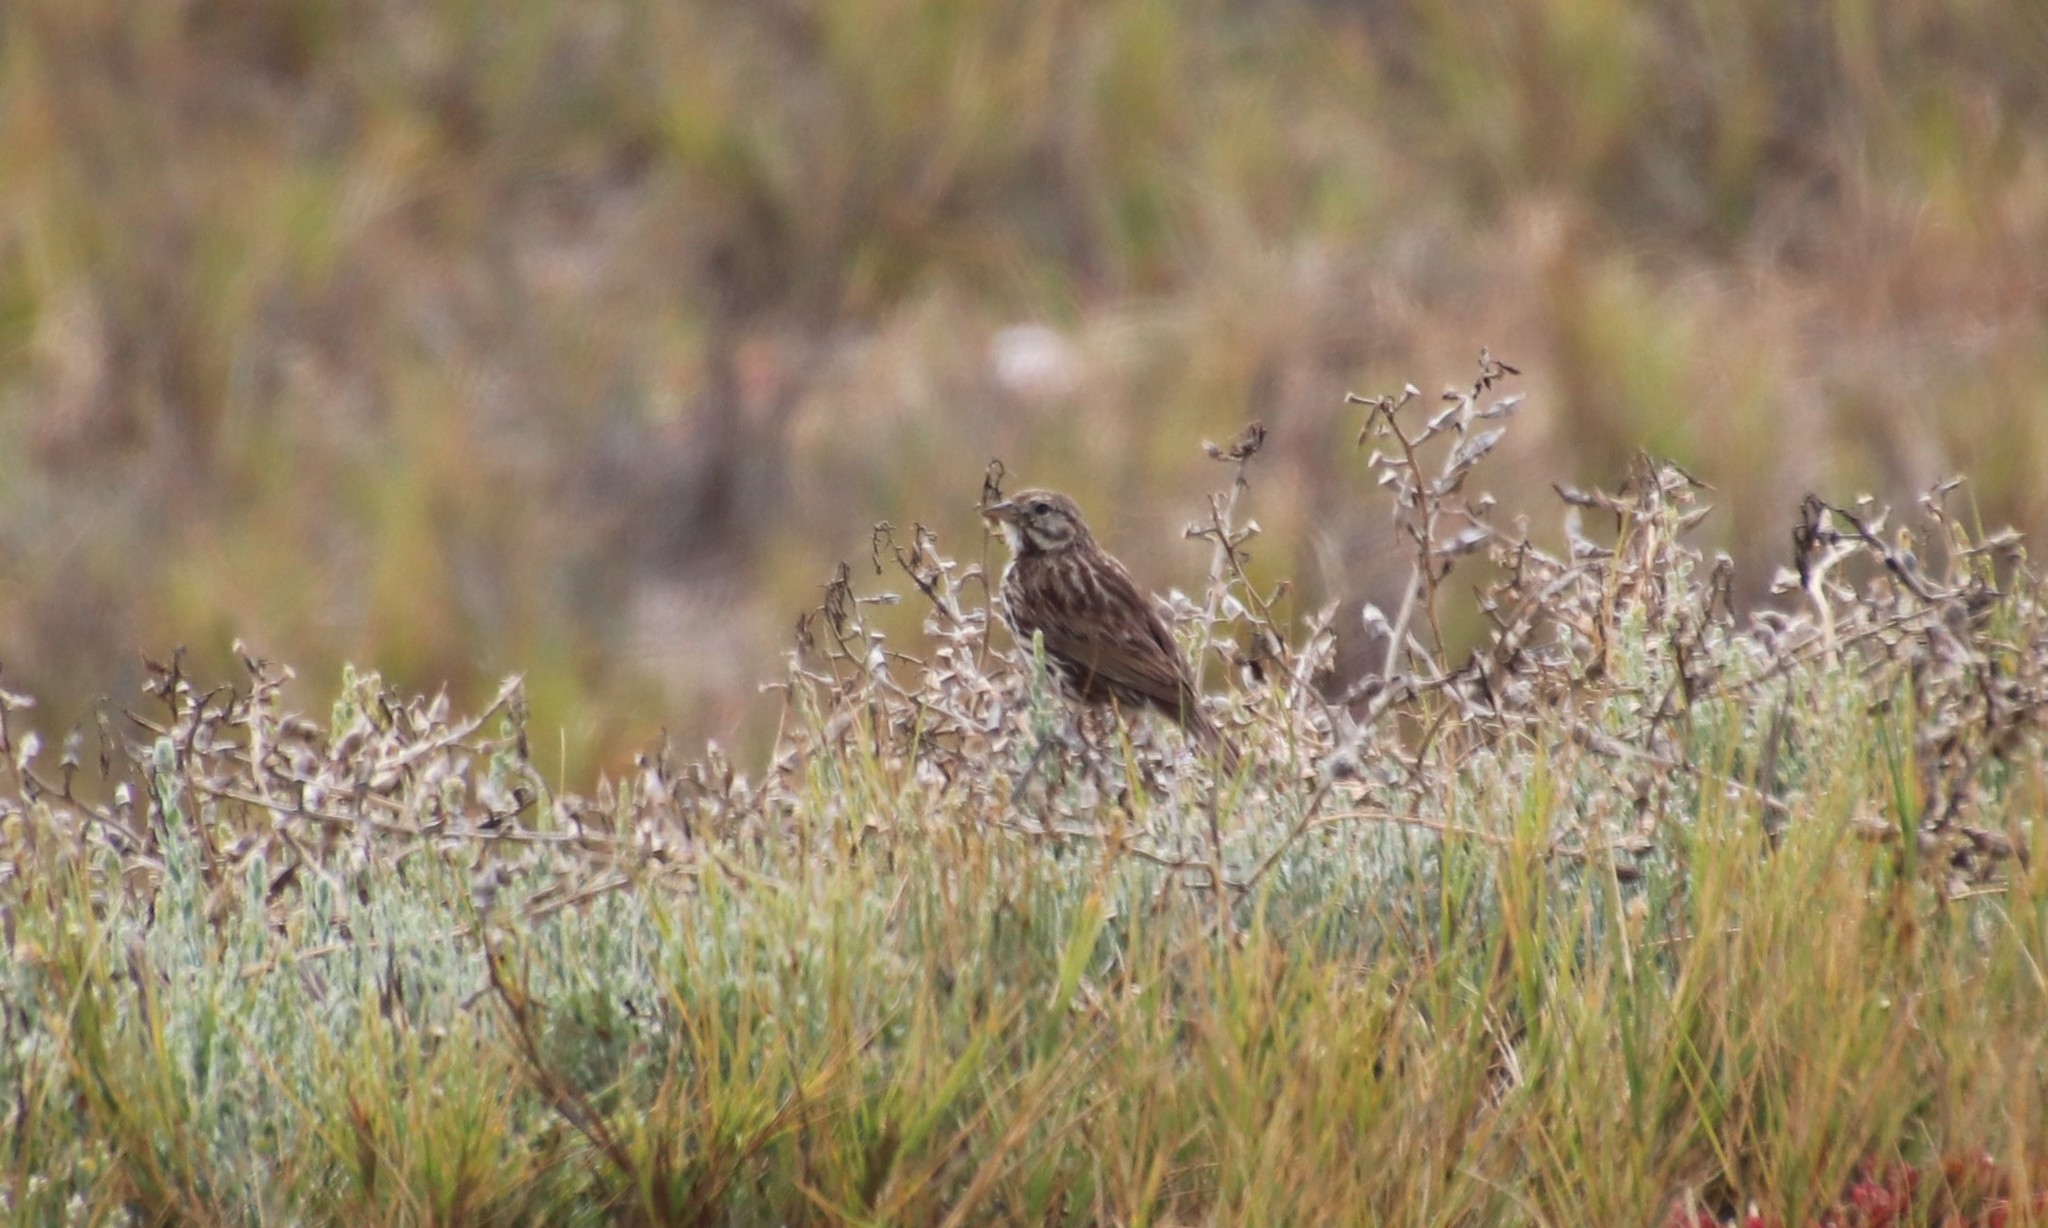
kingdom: Animalia
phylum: Chordata
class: Aves
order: Passeriformes
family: Passerellidae
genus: Passerculus
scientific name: Passerculus sandwichensis
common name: Savannah sparrow
